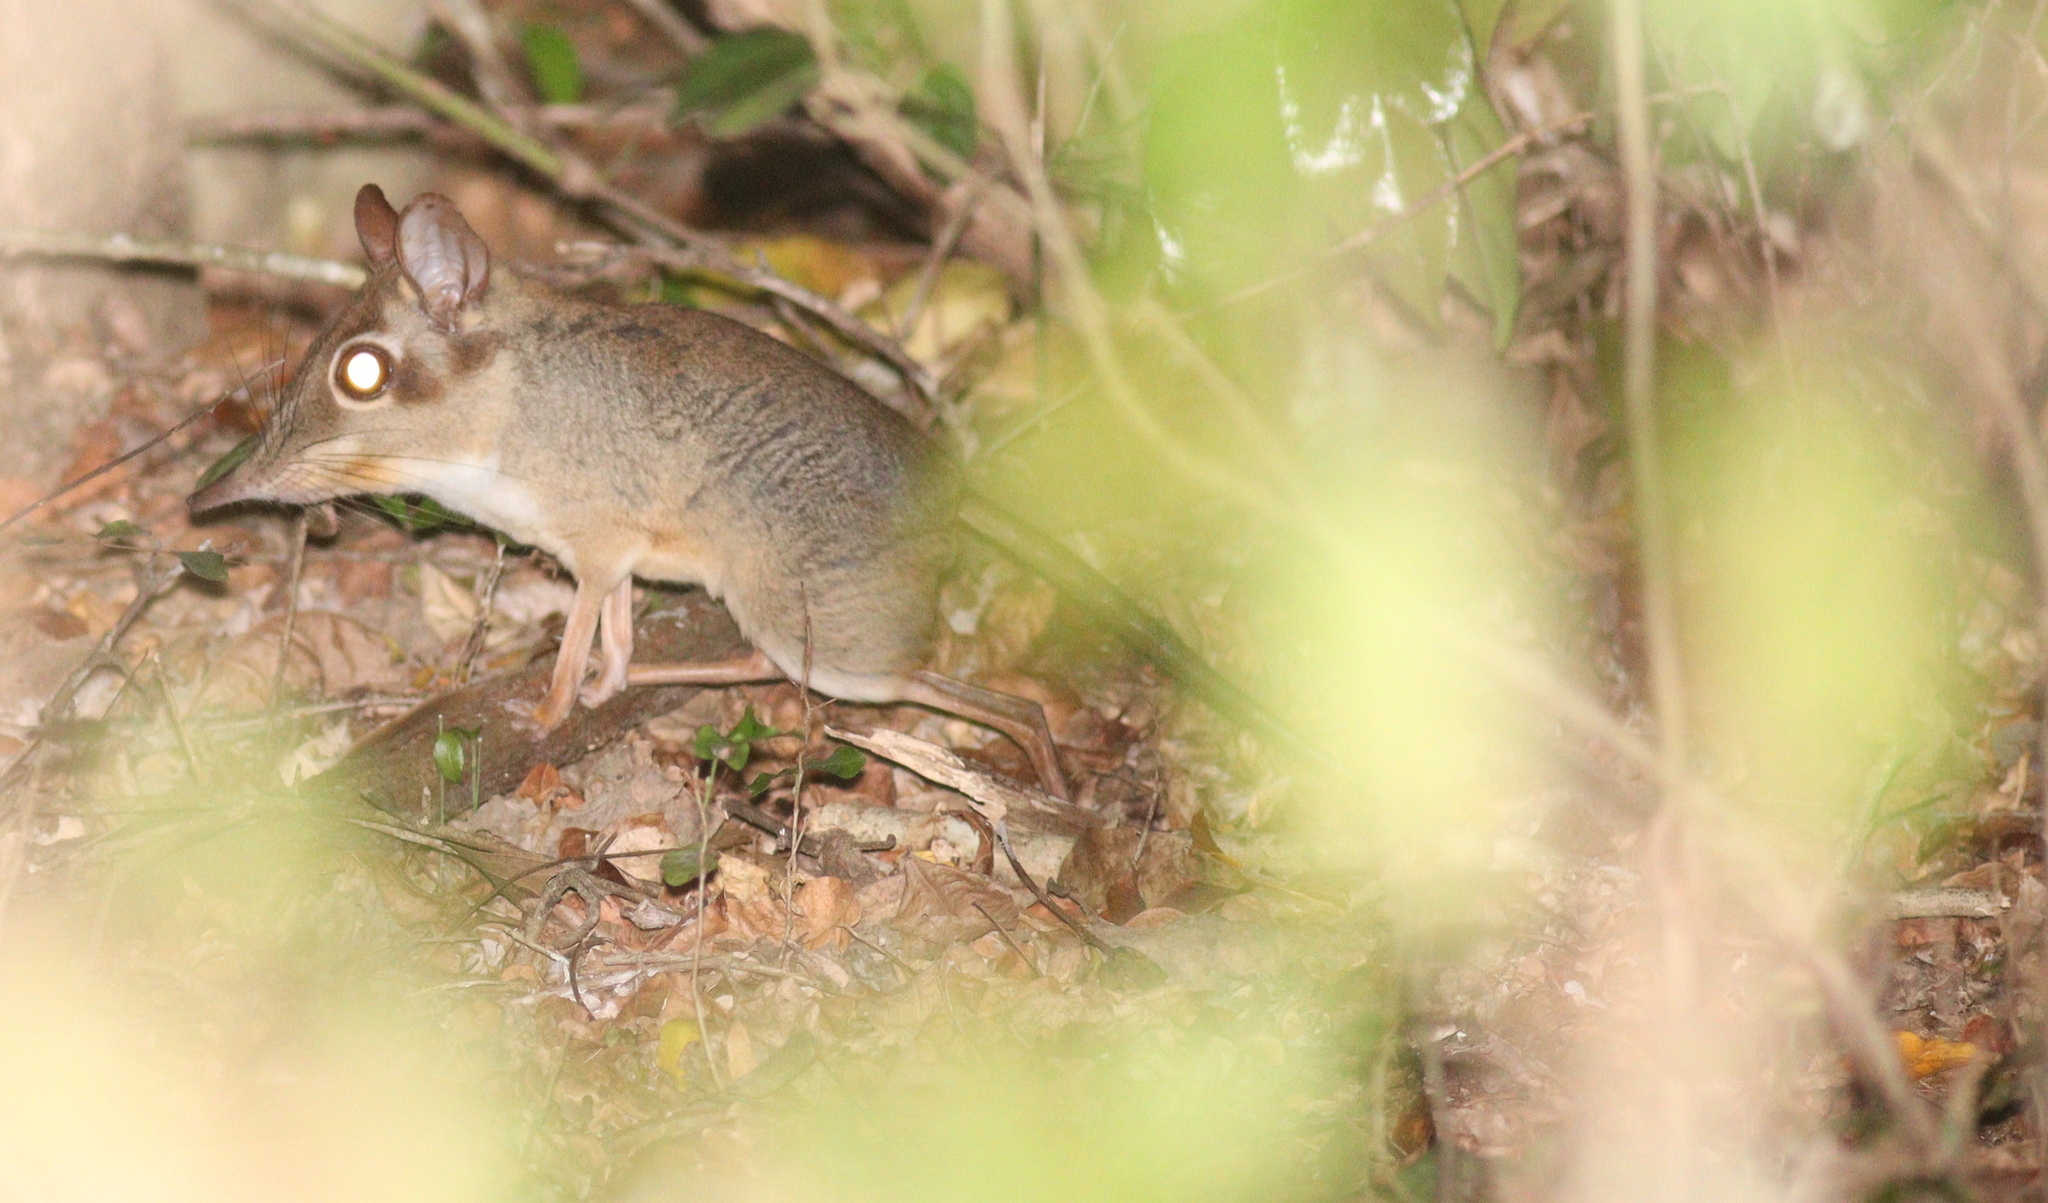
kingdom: Animalia
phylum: Chordata
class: Mammalia
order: Macroscelidea
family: Macroscelididae
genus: Petrodromus
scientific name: Petrodromus tetradactylus
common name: Four-toed elephant shrew
